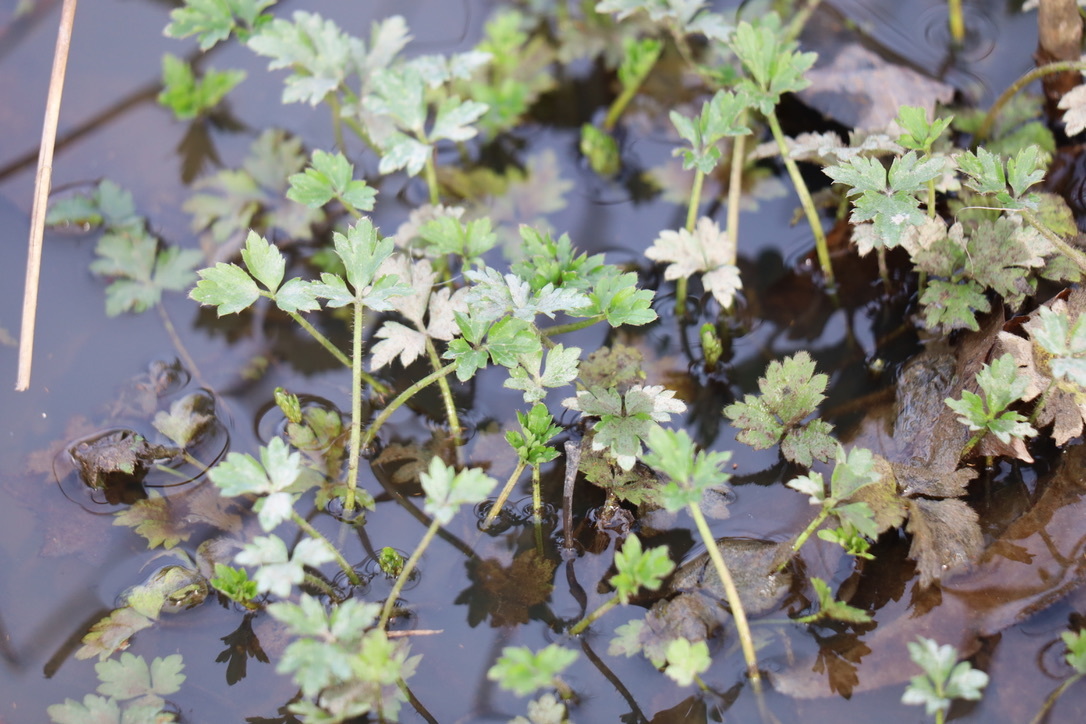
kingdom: Plantae
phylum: Tracheophyta
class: Magnoliopsida
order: Ranunculales
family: Ranunculaceae
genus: Ranunculus
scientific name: Ranunculus repens
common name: Creeping buttercup
